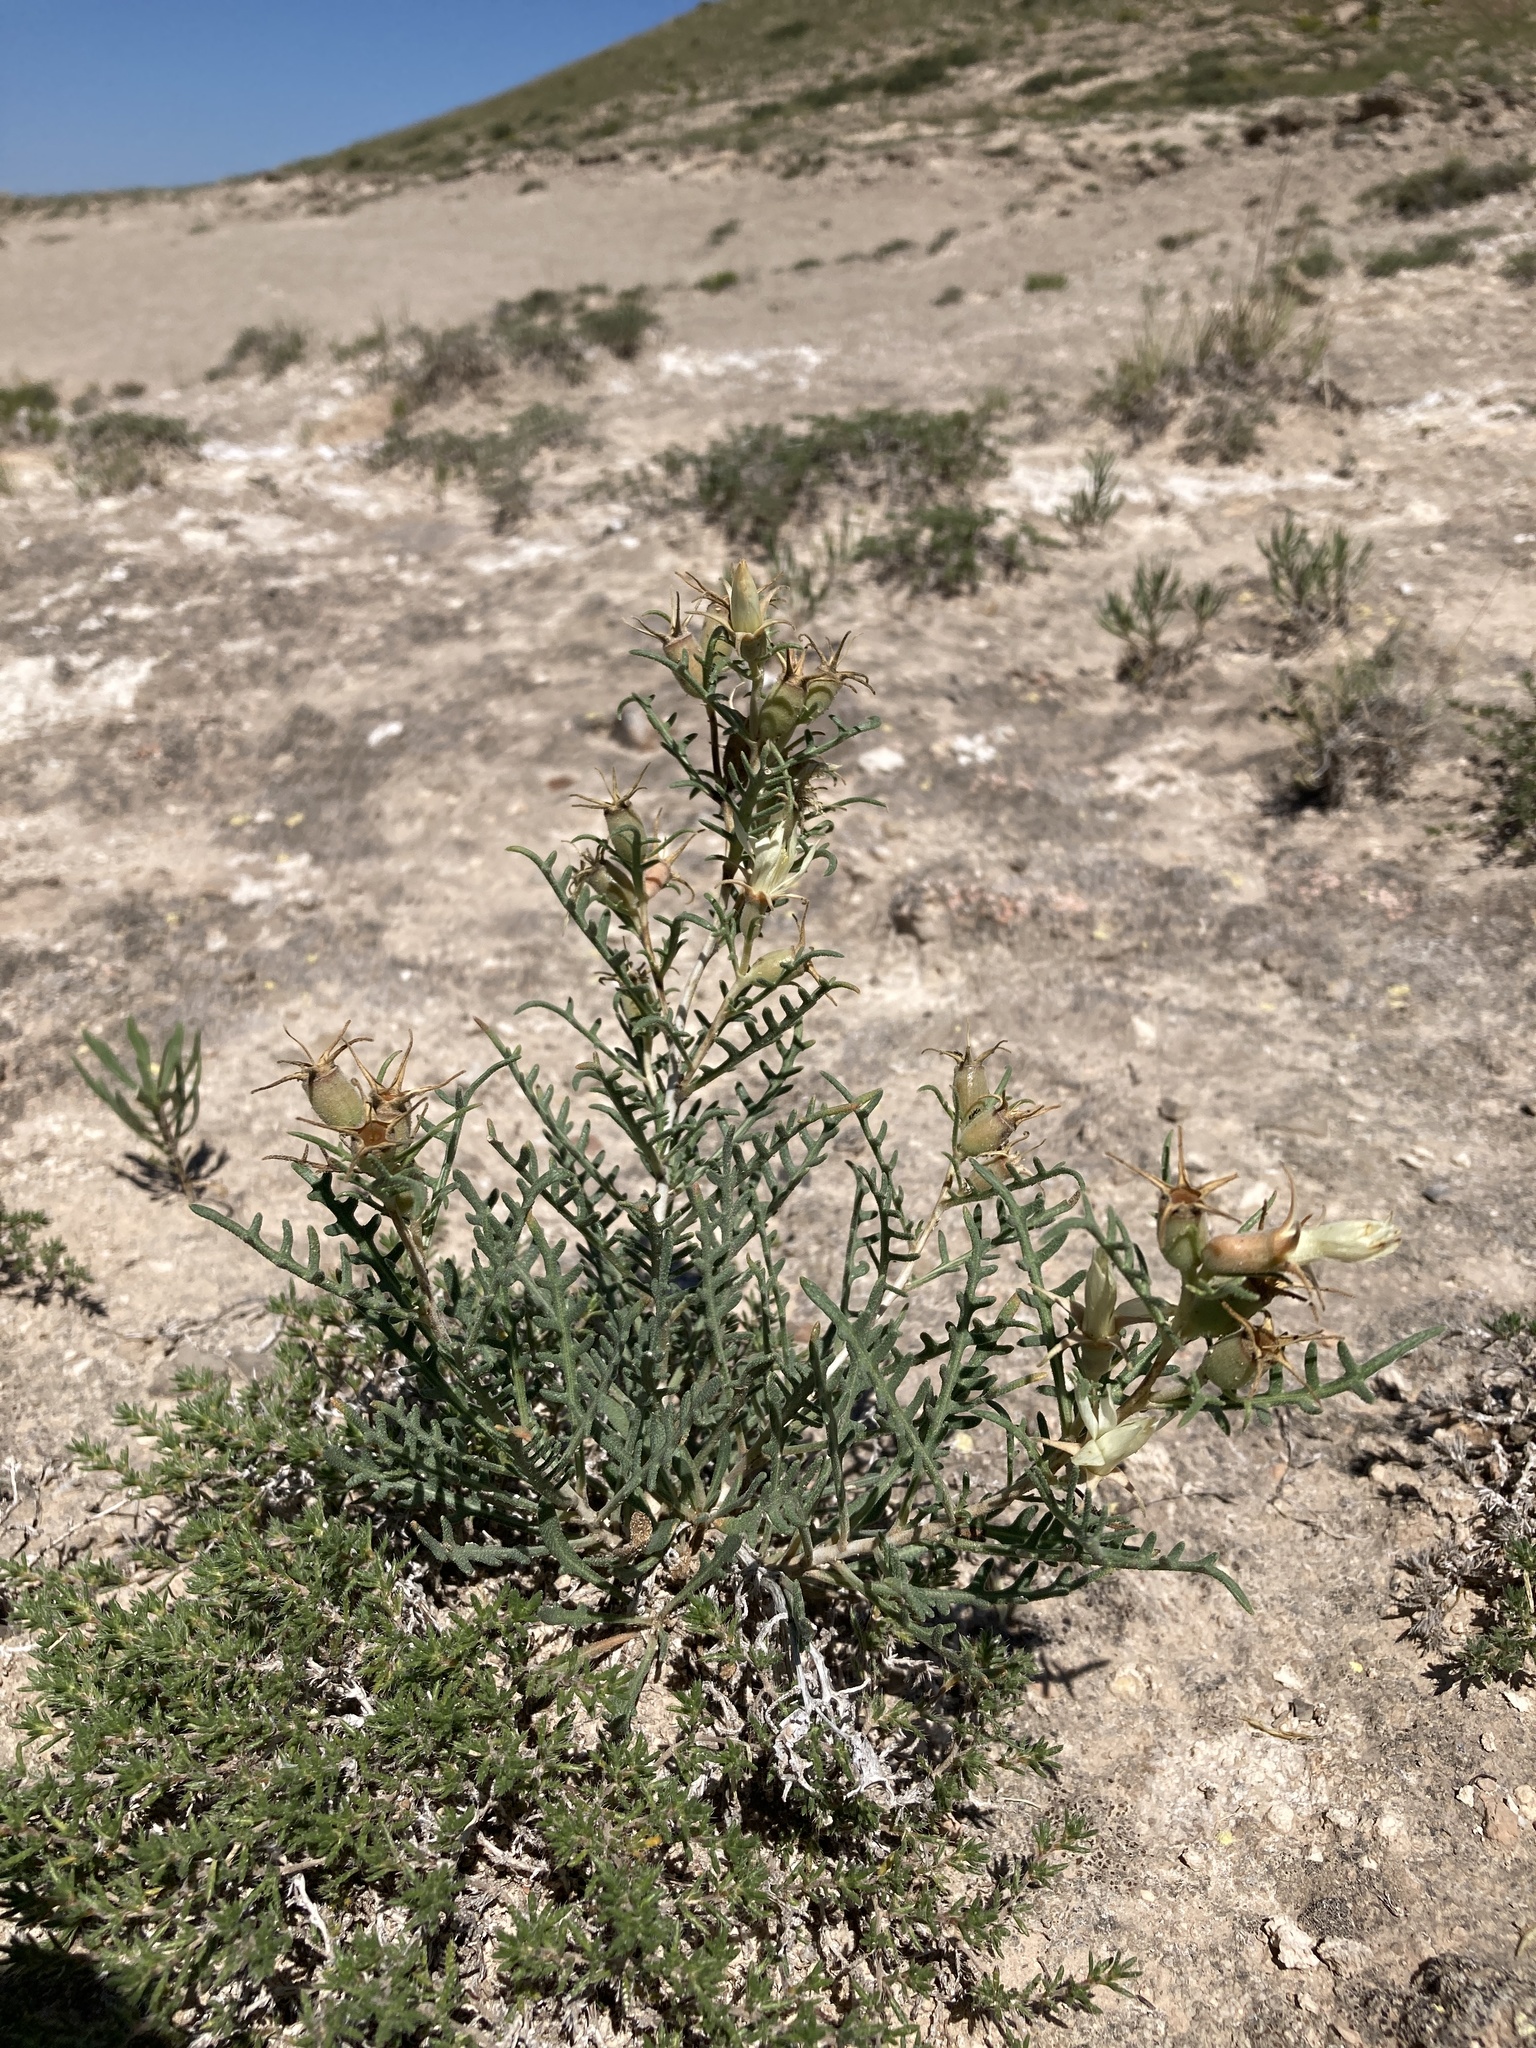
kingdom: Plantae
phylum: Tracheophyta
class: Magnoliopsida
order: Cornales
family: Loasaceae
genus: Mentzelia
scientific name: Mentzelia humilis
